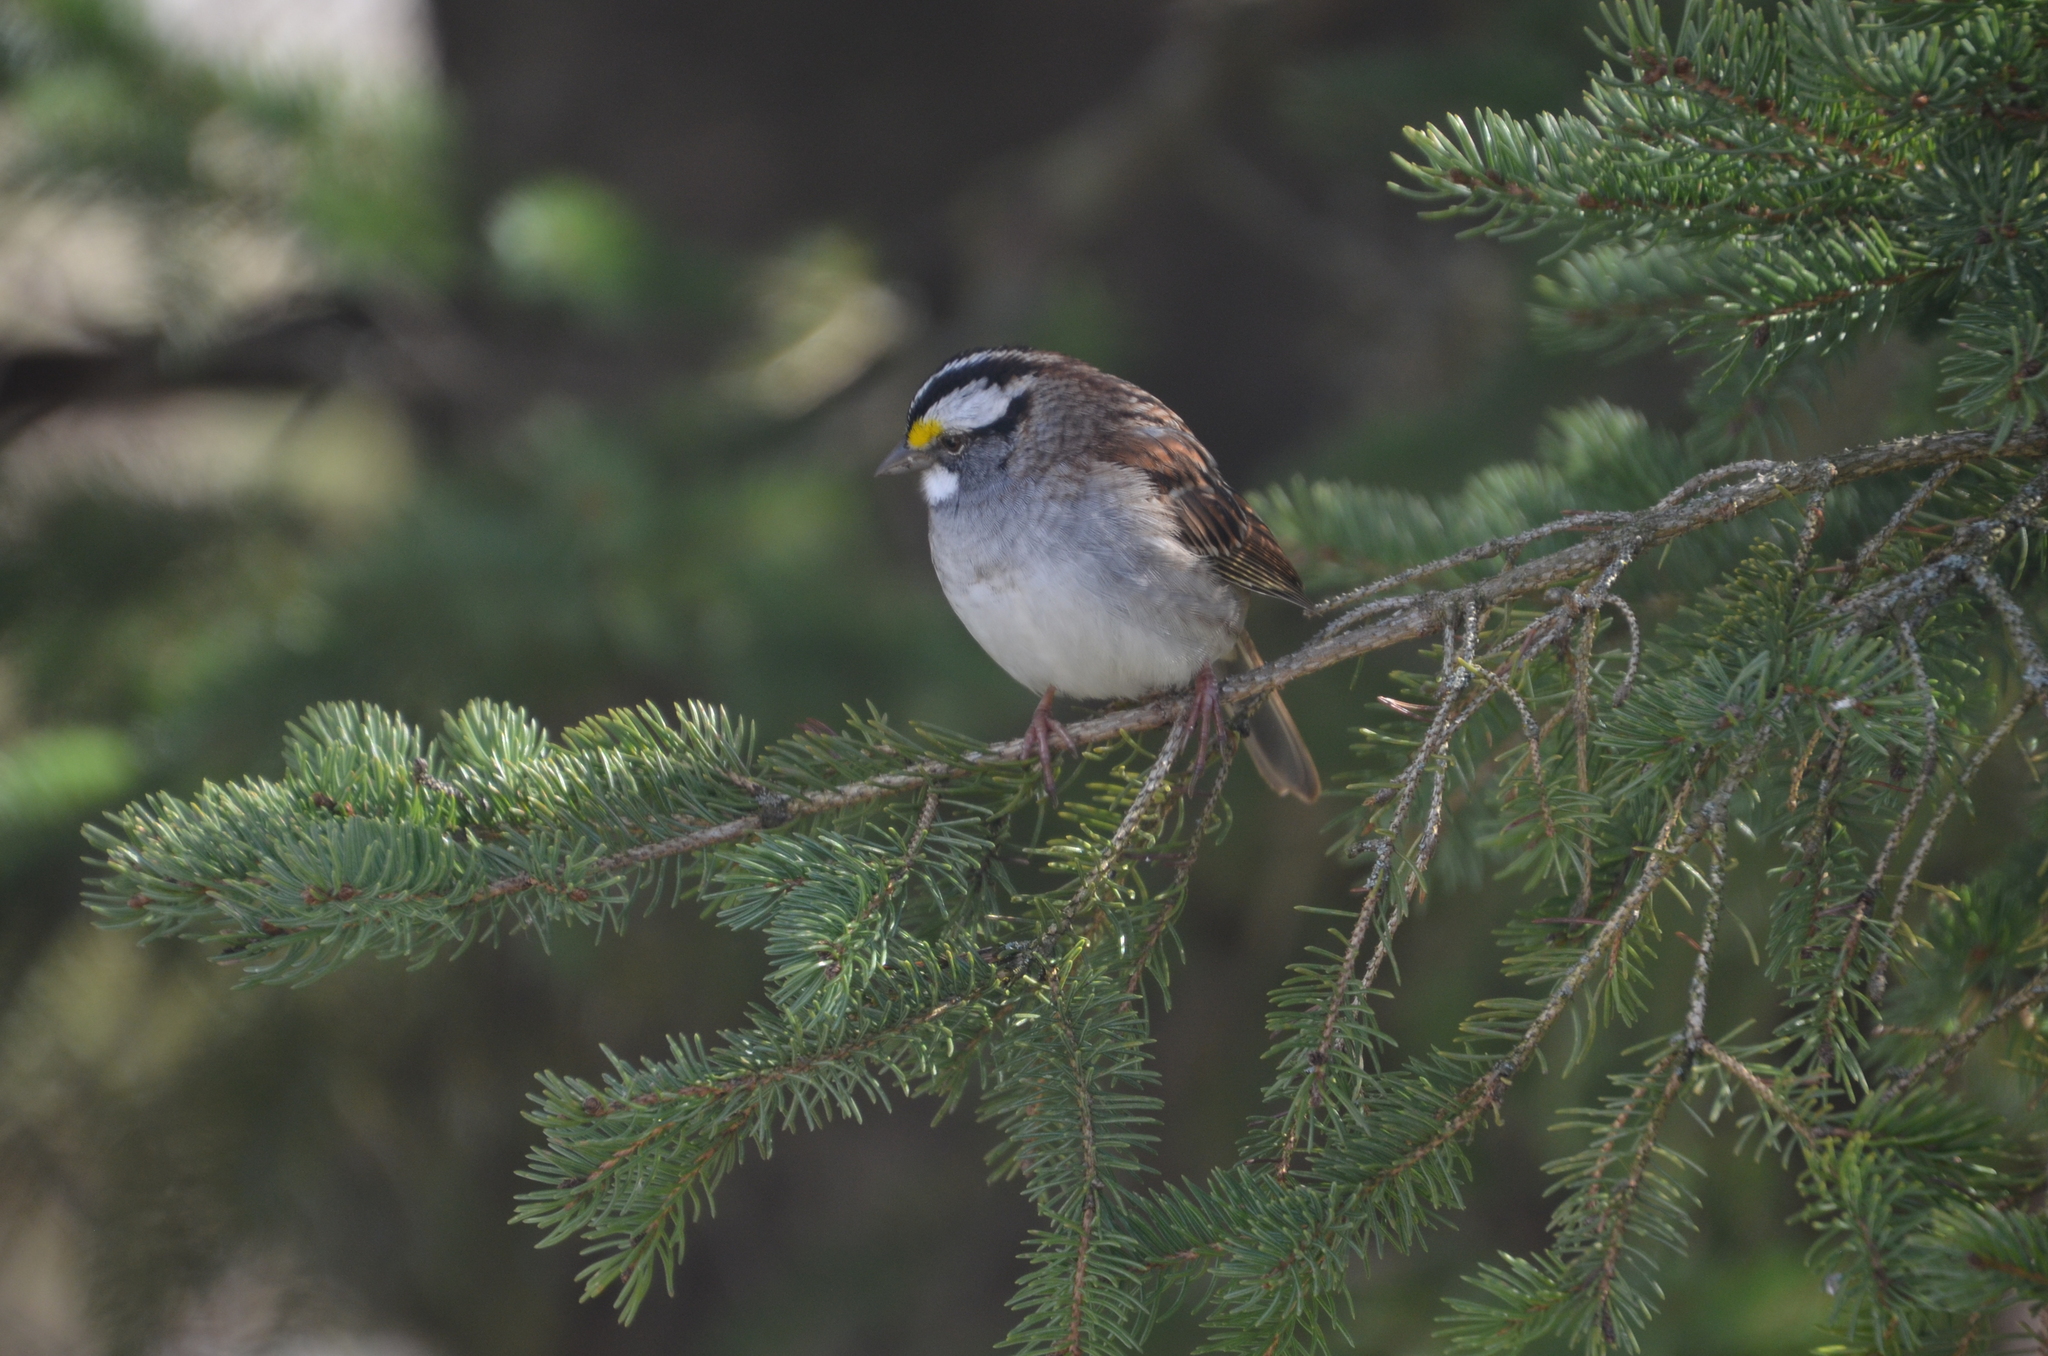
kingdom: Animalia
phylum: Chordata
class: Aves
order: Passeriformes
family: Passerellidae
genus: Zonotrichia
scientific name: Zonotrichia albicollis
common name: White-throated sparrow
